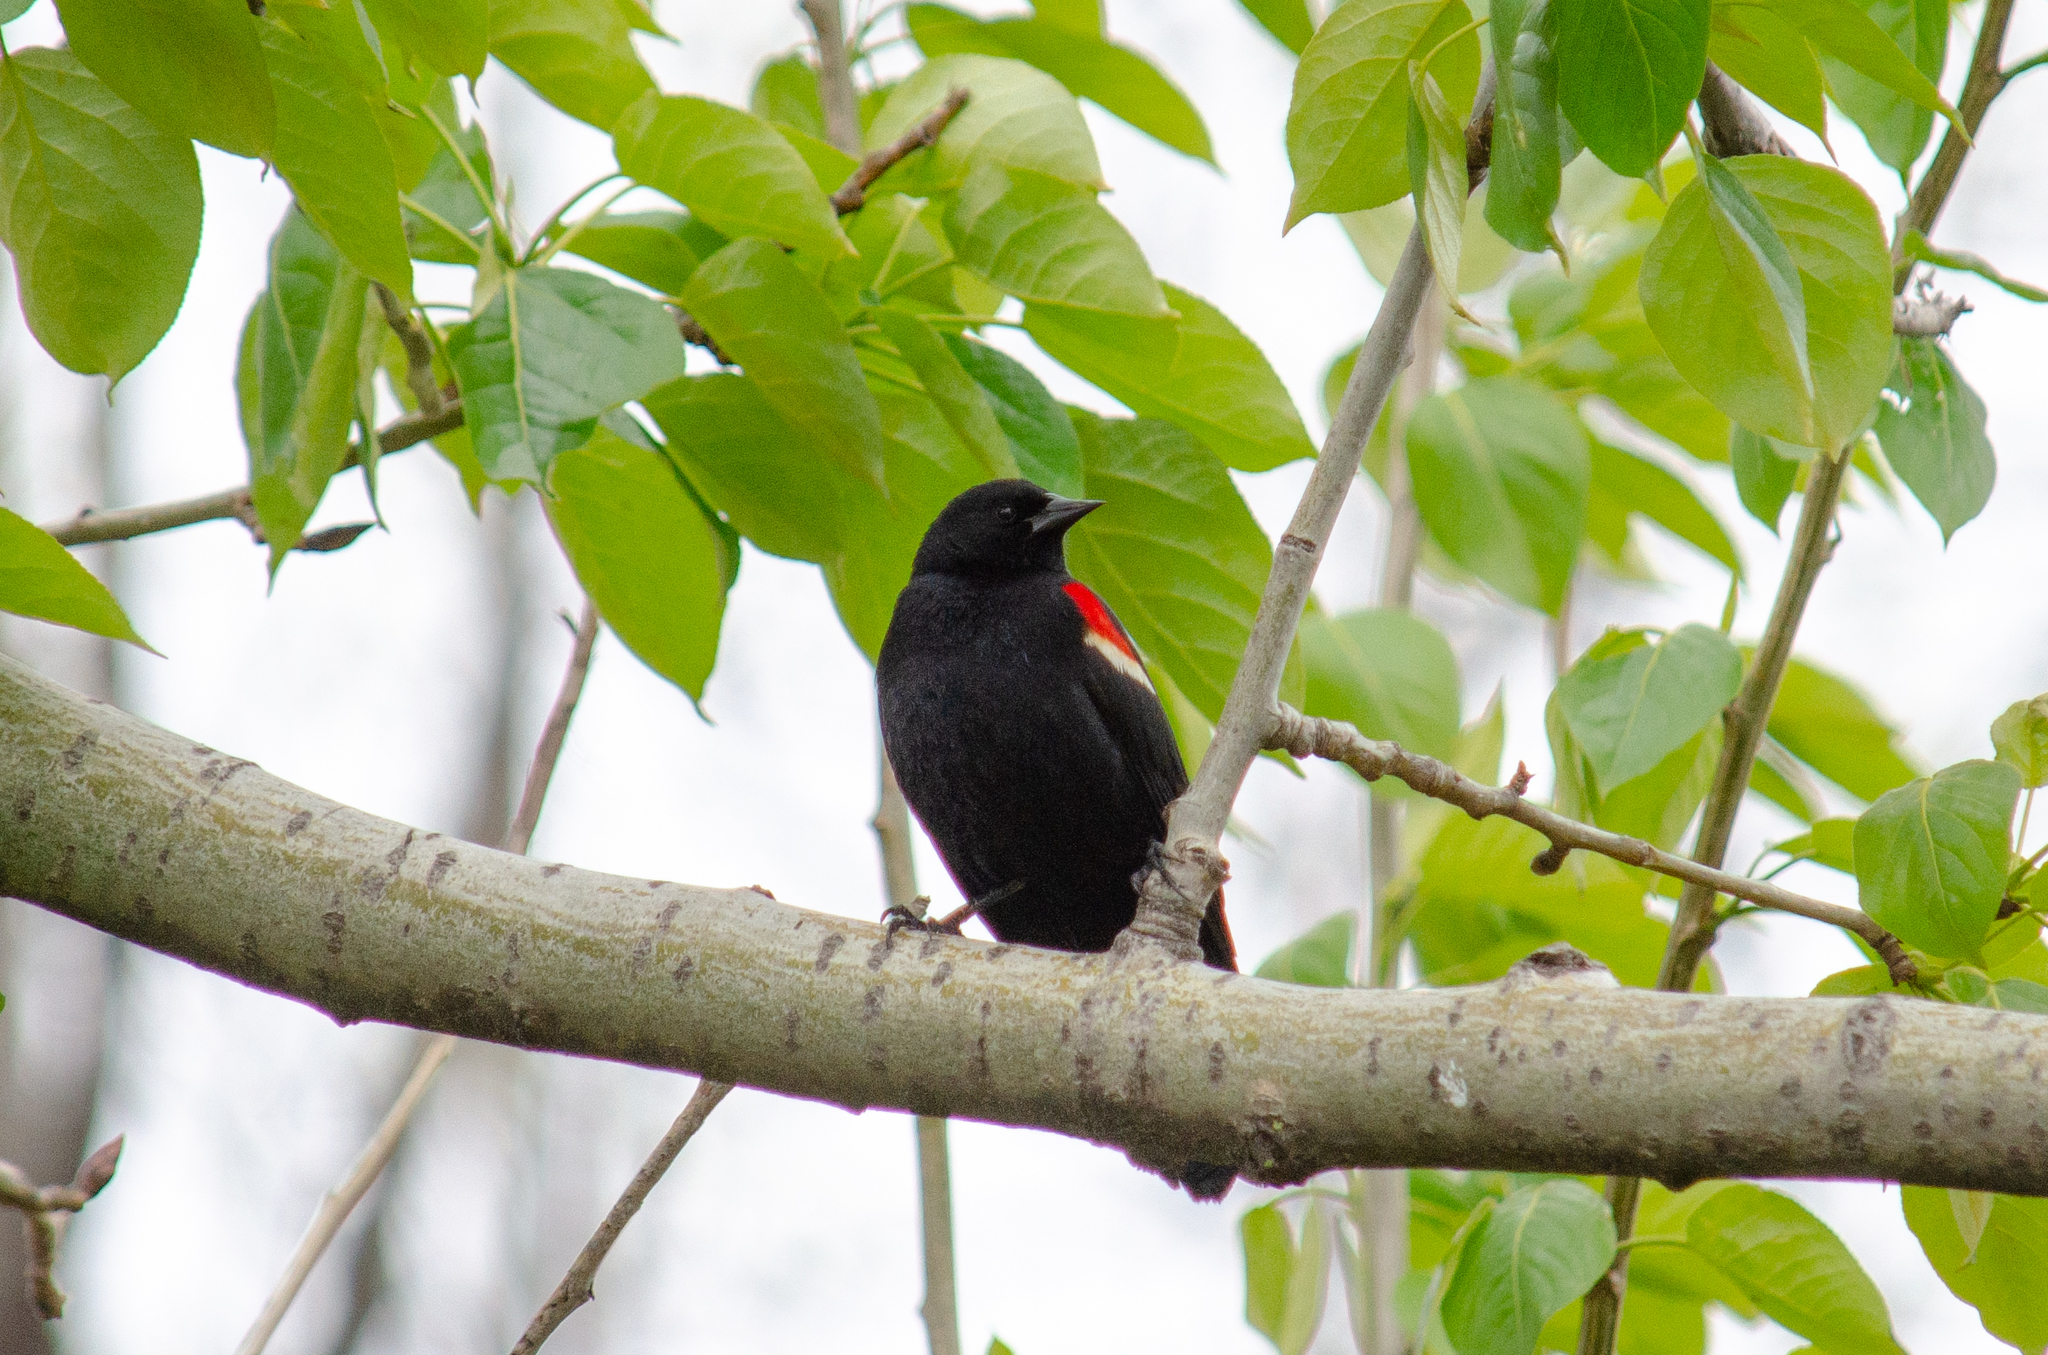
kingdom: Animalia
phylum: Chordata
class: Aves
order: Passeriformes
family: Icteridae
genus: Agelaius
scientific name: Agelaius phoeniceus
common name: Red-winged blackbird
